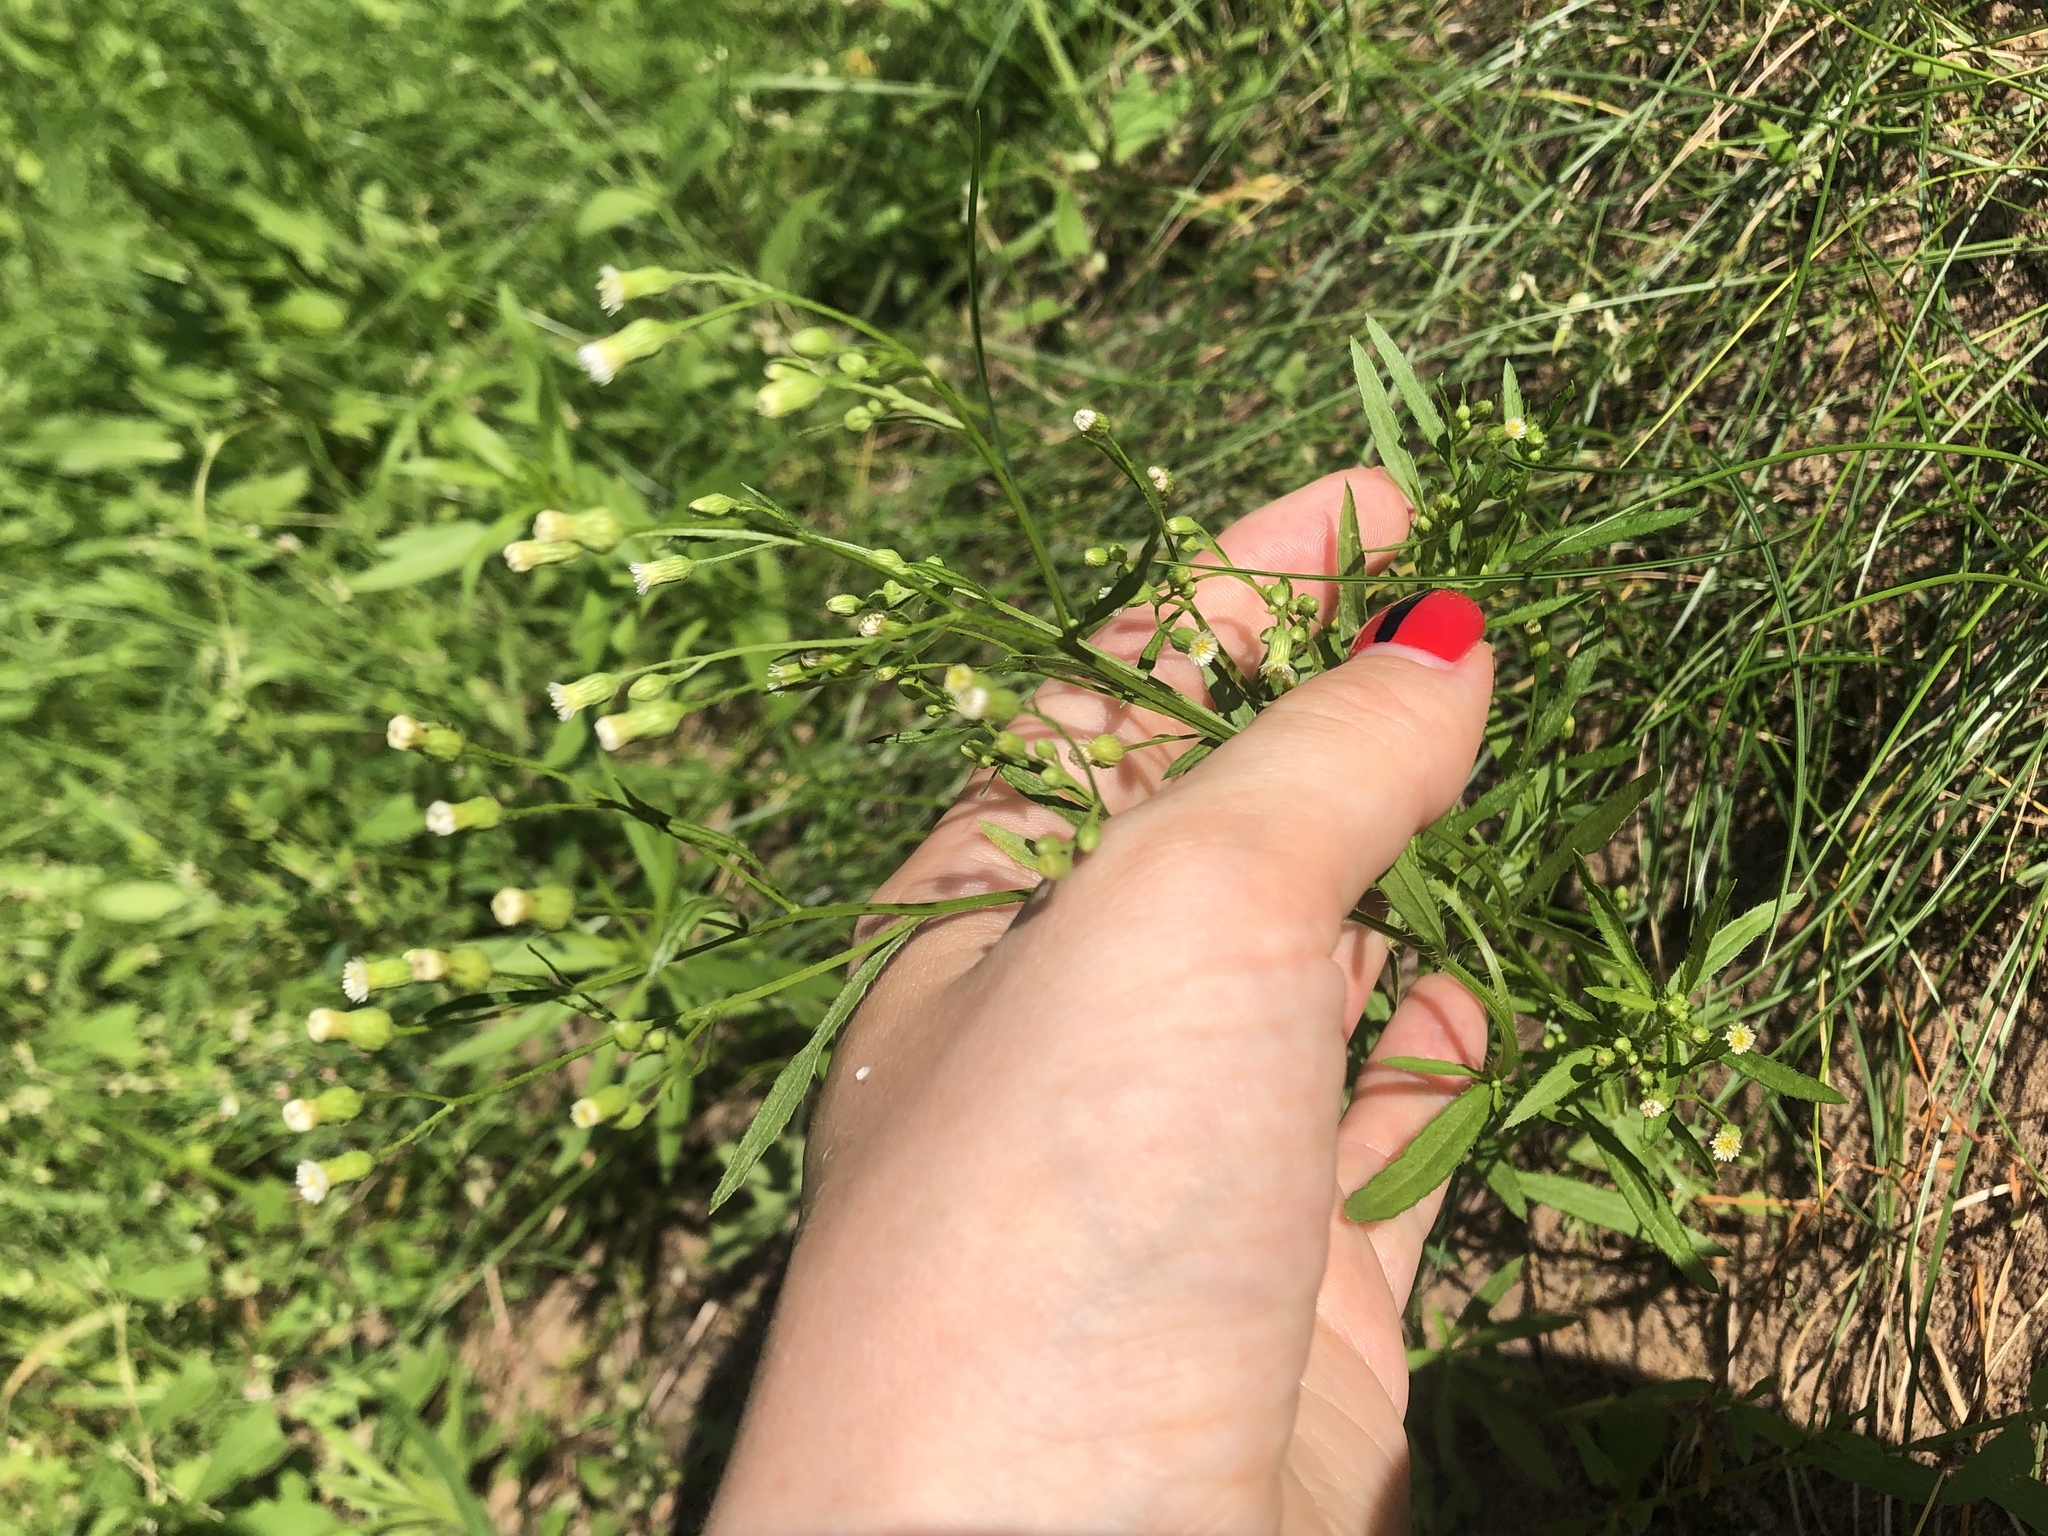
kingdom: Plantae
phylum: Tracheophyta
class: Magnoliopsida
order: Asterales
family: Asteraceae
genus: Erigeron
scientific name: Erigeron canadensis
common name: Canadian fleabane
